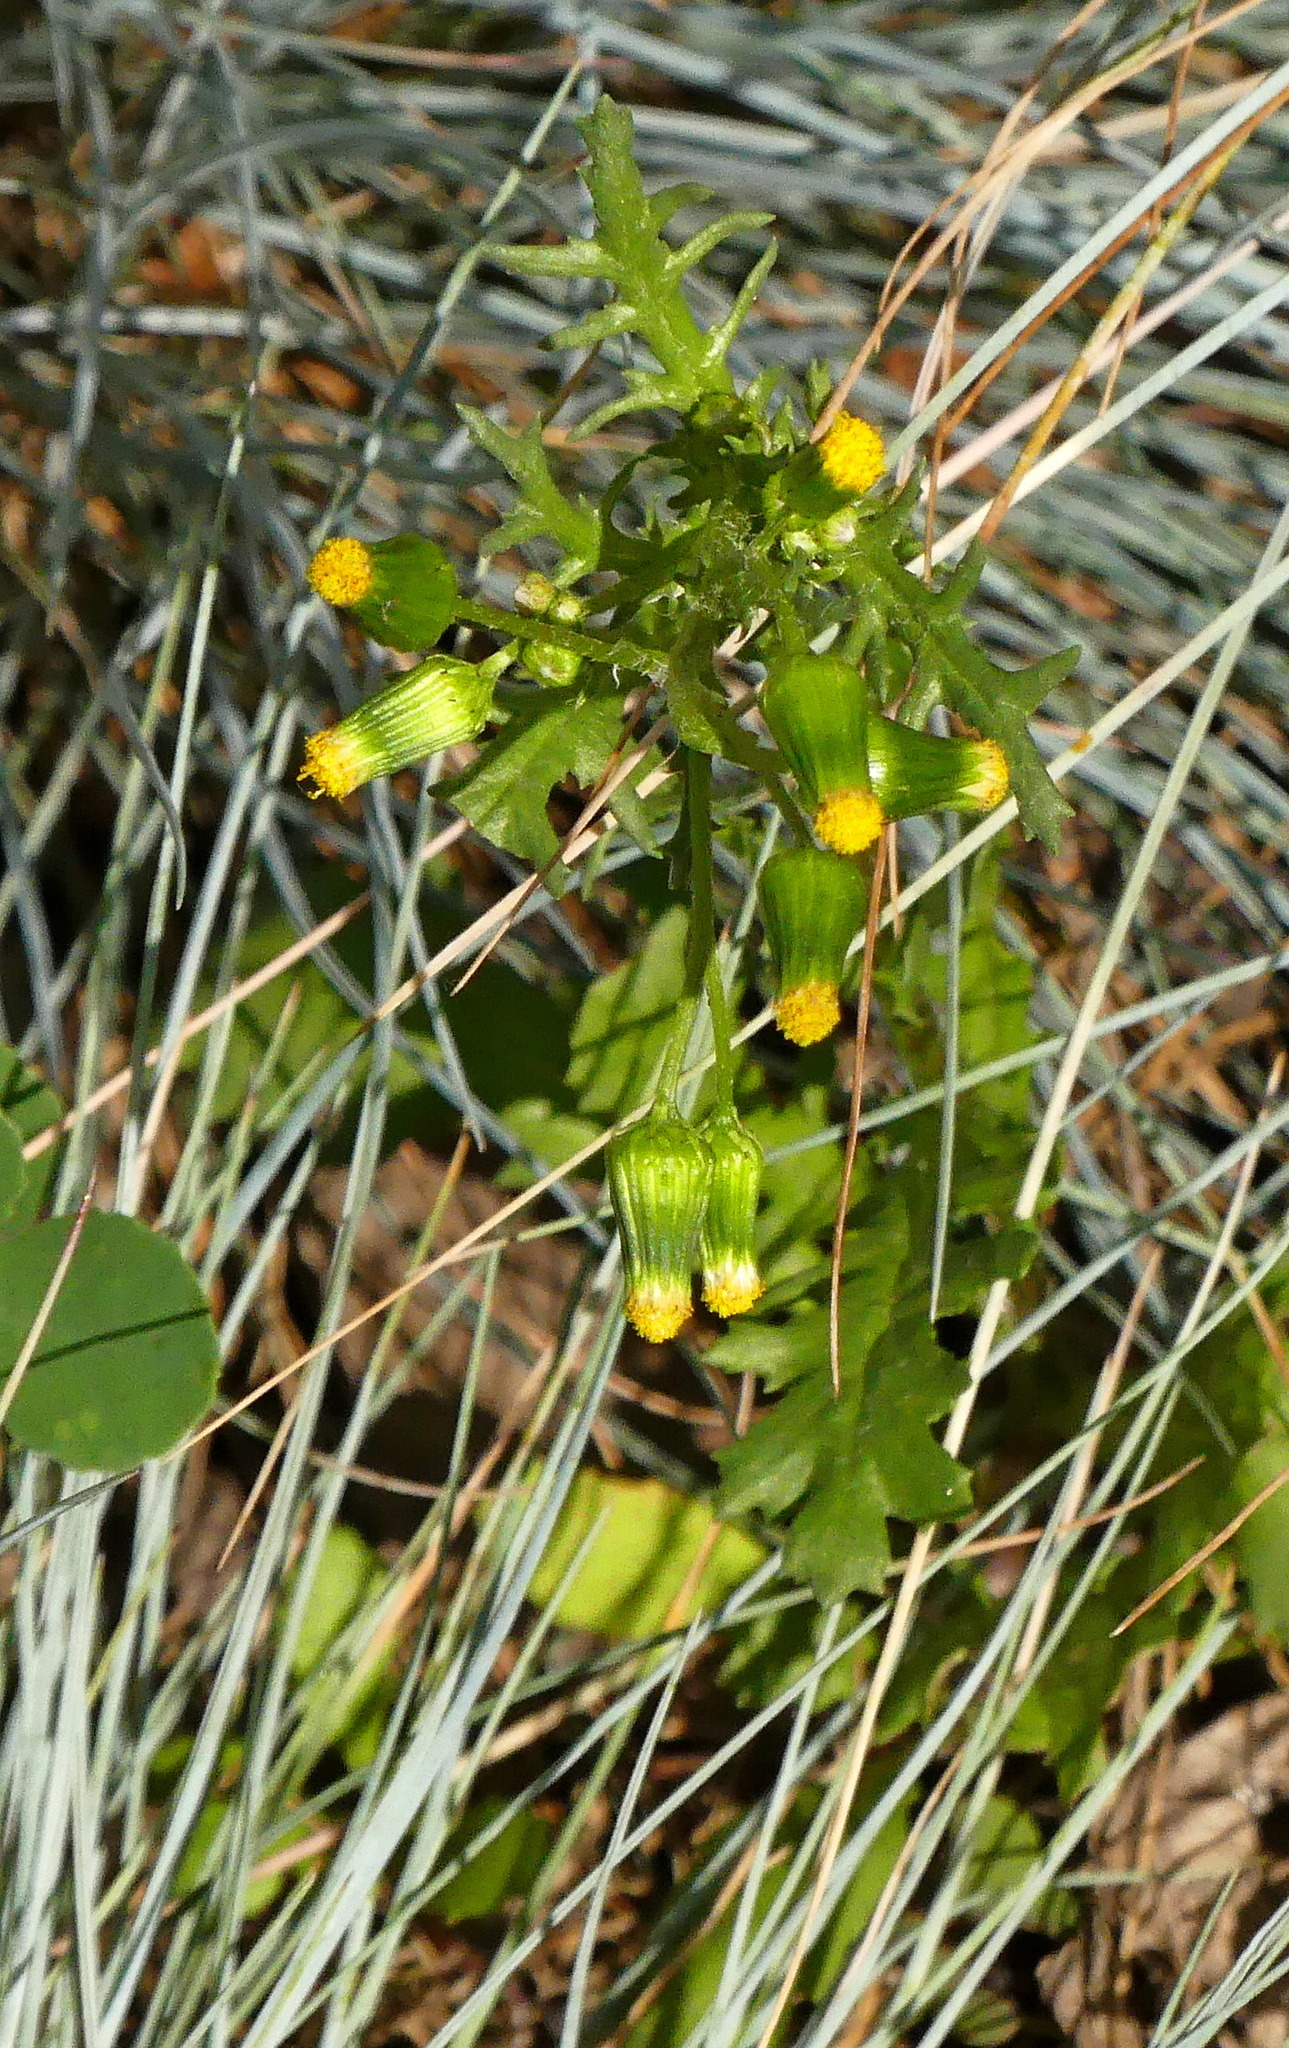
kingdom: Plantae
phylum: Tracheophyta
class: Magnoliopsida
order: Asterales
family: Asteraceae
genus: Senecio
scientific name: Senecio vulgaris
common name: Old-man-in-the-spring
